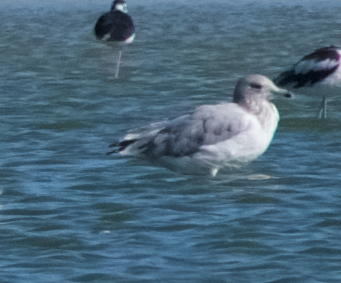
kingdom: Animalia
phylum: Chordata
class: Aves
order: Charadriiformes
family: Laridae
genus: Larus
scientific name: Larus californicus
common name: California gull
